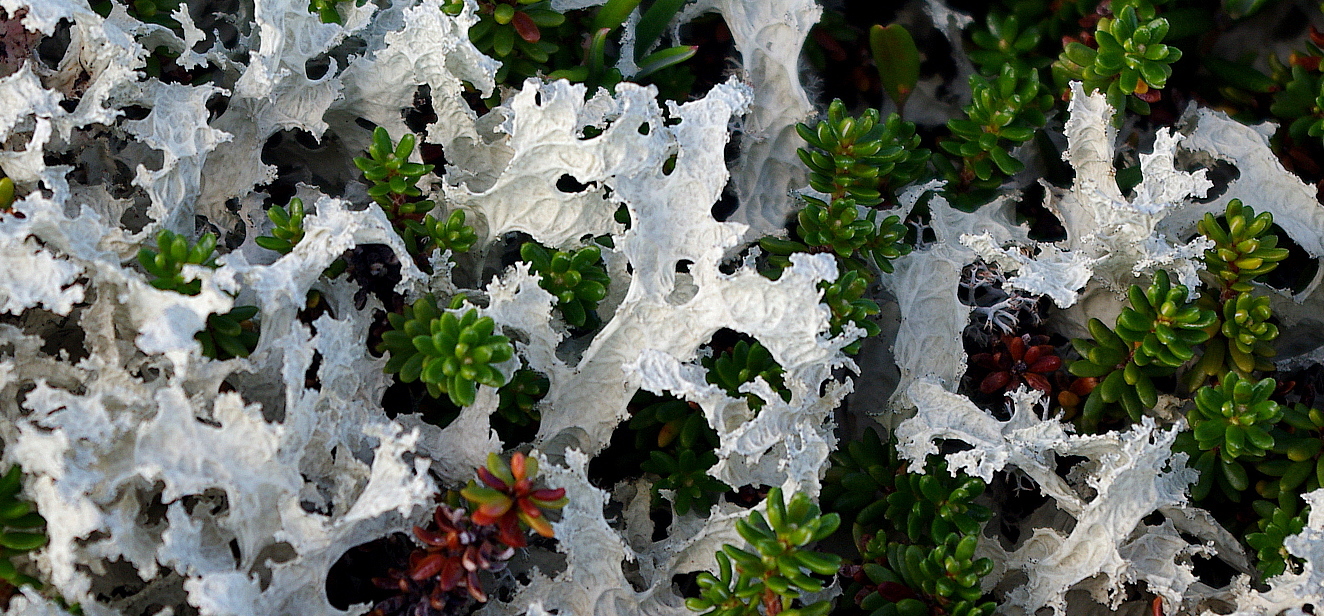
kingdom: Fungi
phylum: Ascomycota
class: Lecanoromycetes
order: Lecanorales
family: Parmeliaceae
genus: Nephromopsis
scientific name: Nephromopsis nivalis
